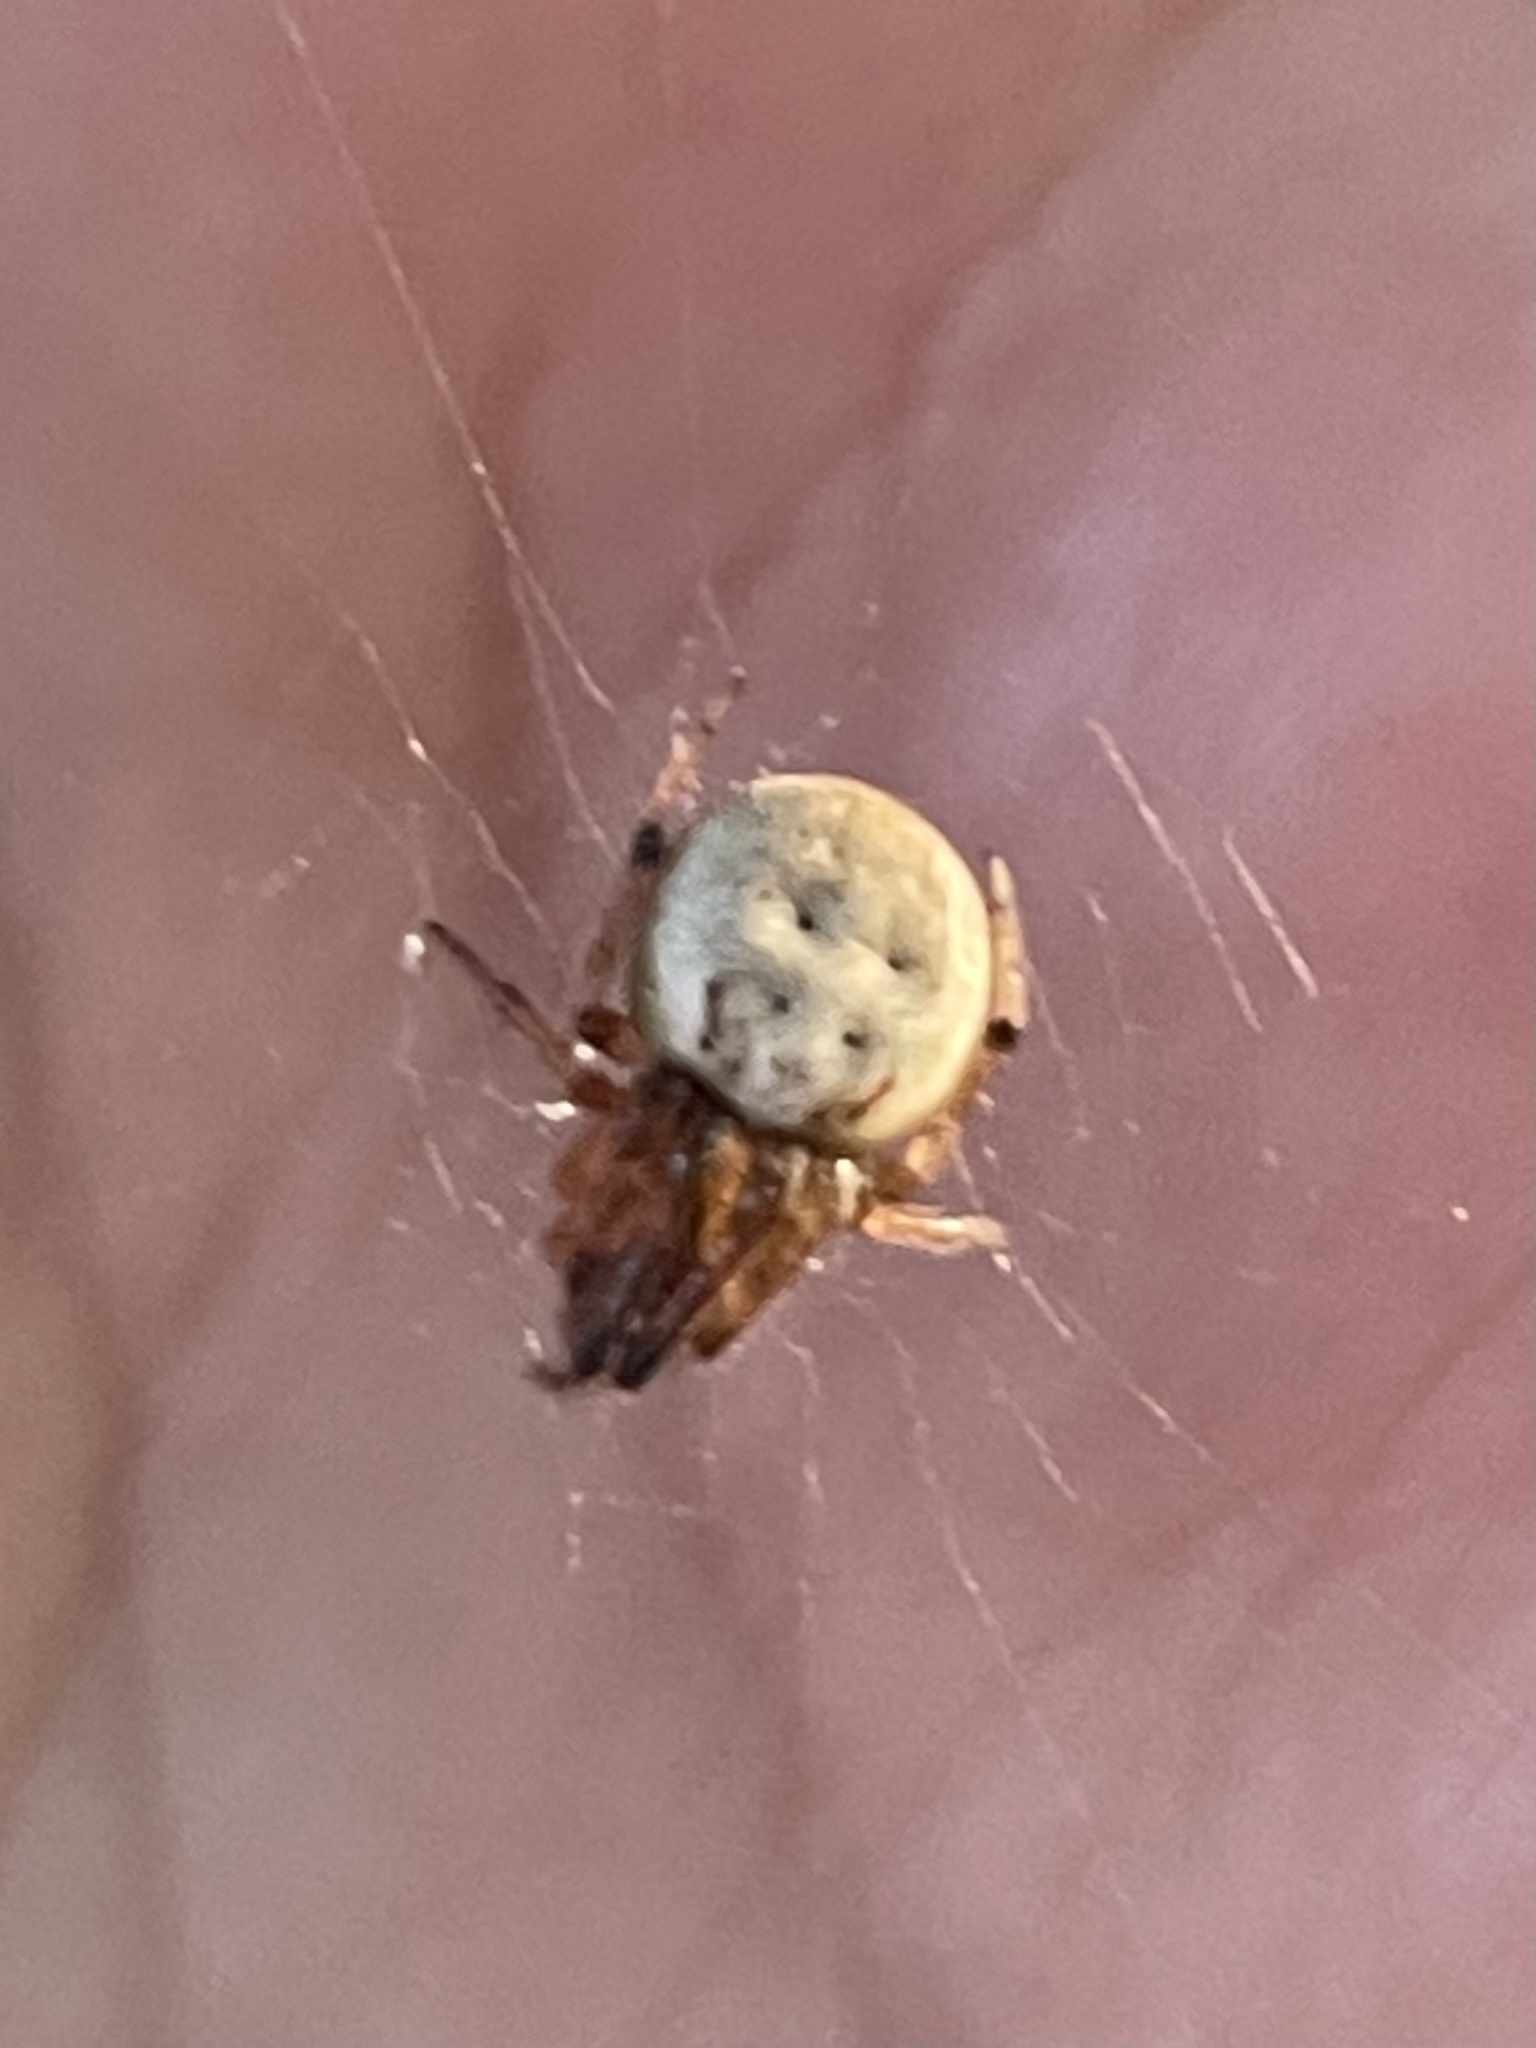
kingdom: Animalia
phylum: Arthropoda
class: Arachnida
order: Araneae
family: Araneidae
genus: Metazygia
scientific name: Metazygia zilloides
